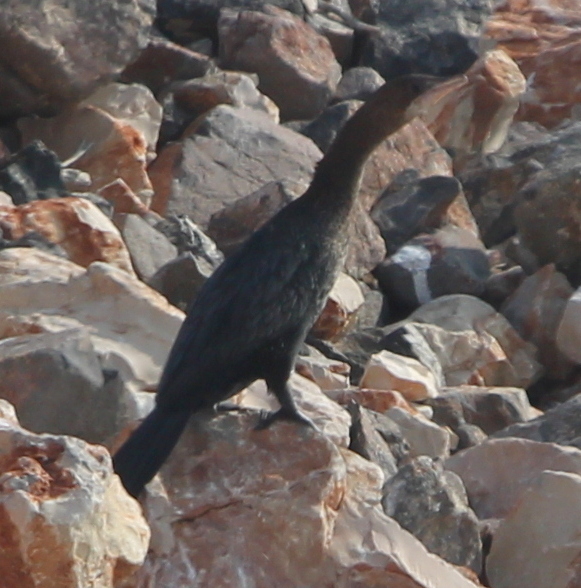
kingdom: Animalia
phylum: Chordata
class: Aves
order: Suliformes
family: Phalacrocoracidae
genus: Microcarbo
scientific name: Microcarbo pygmaeus
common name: Pygmy cormorant
